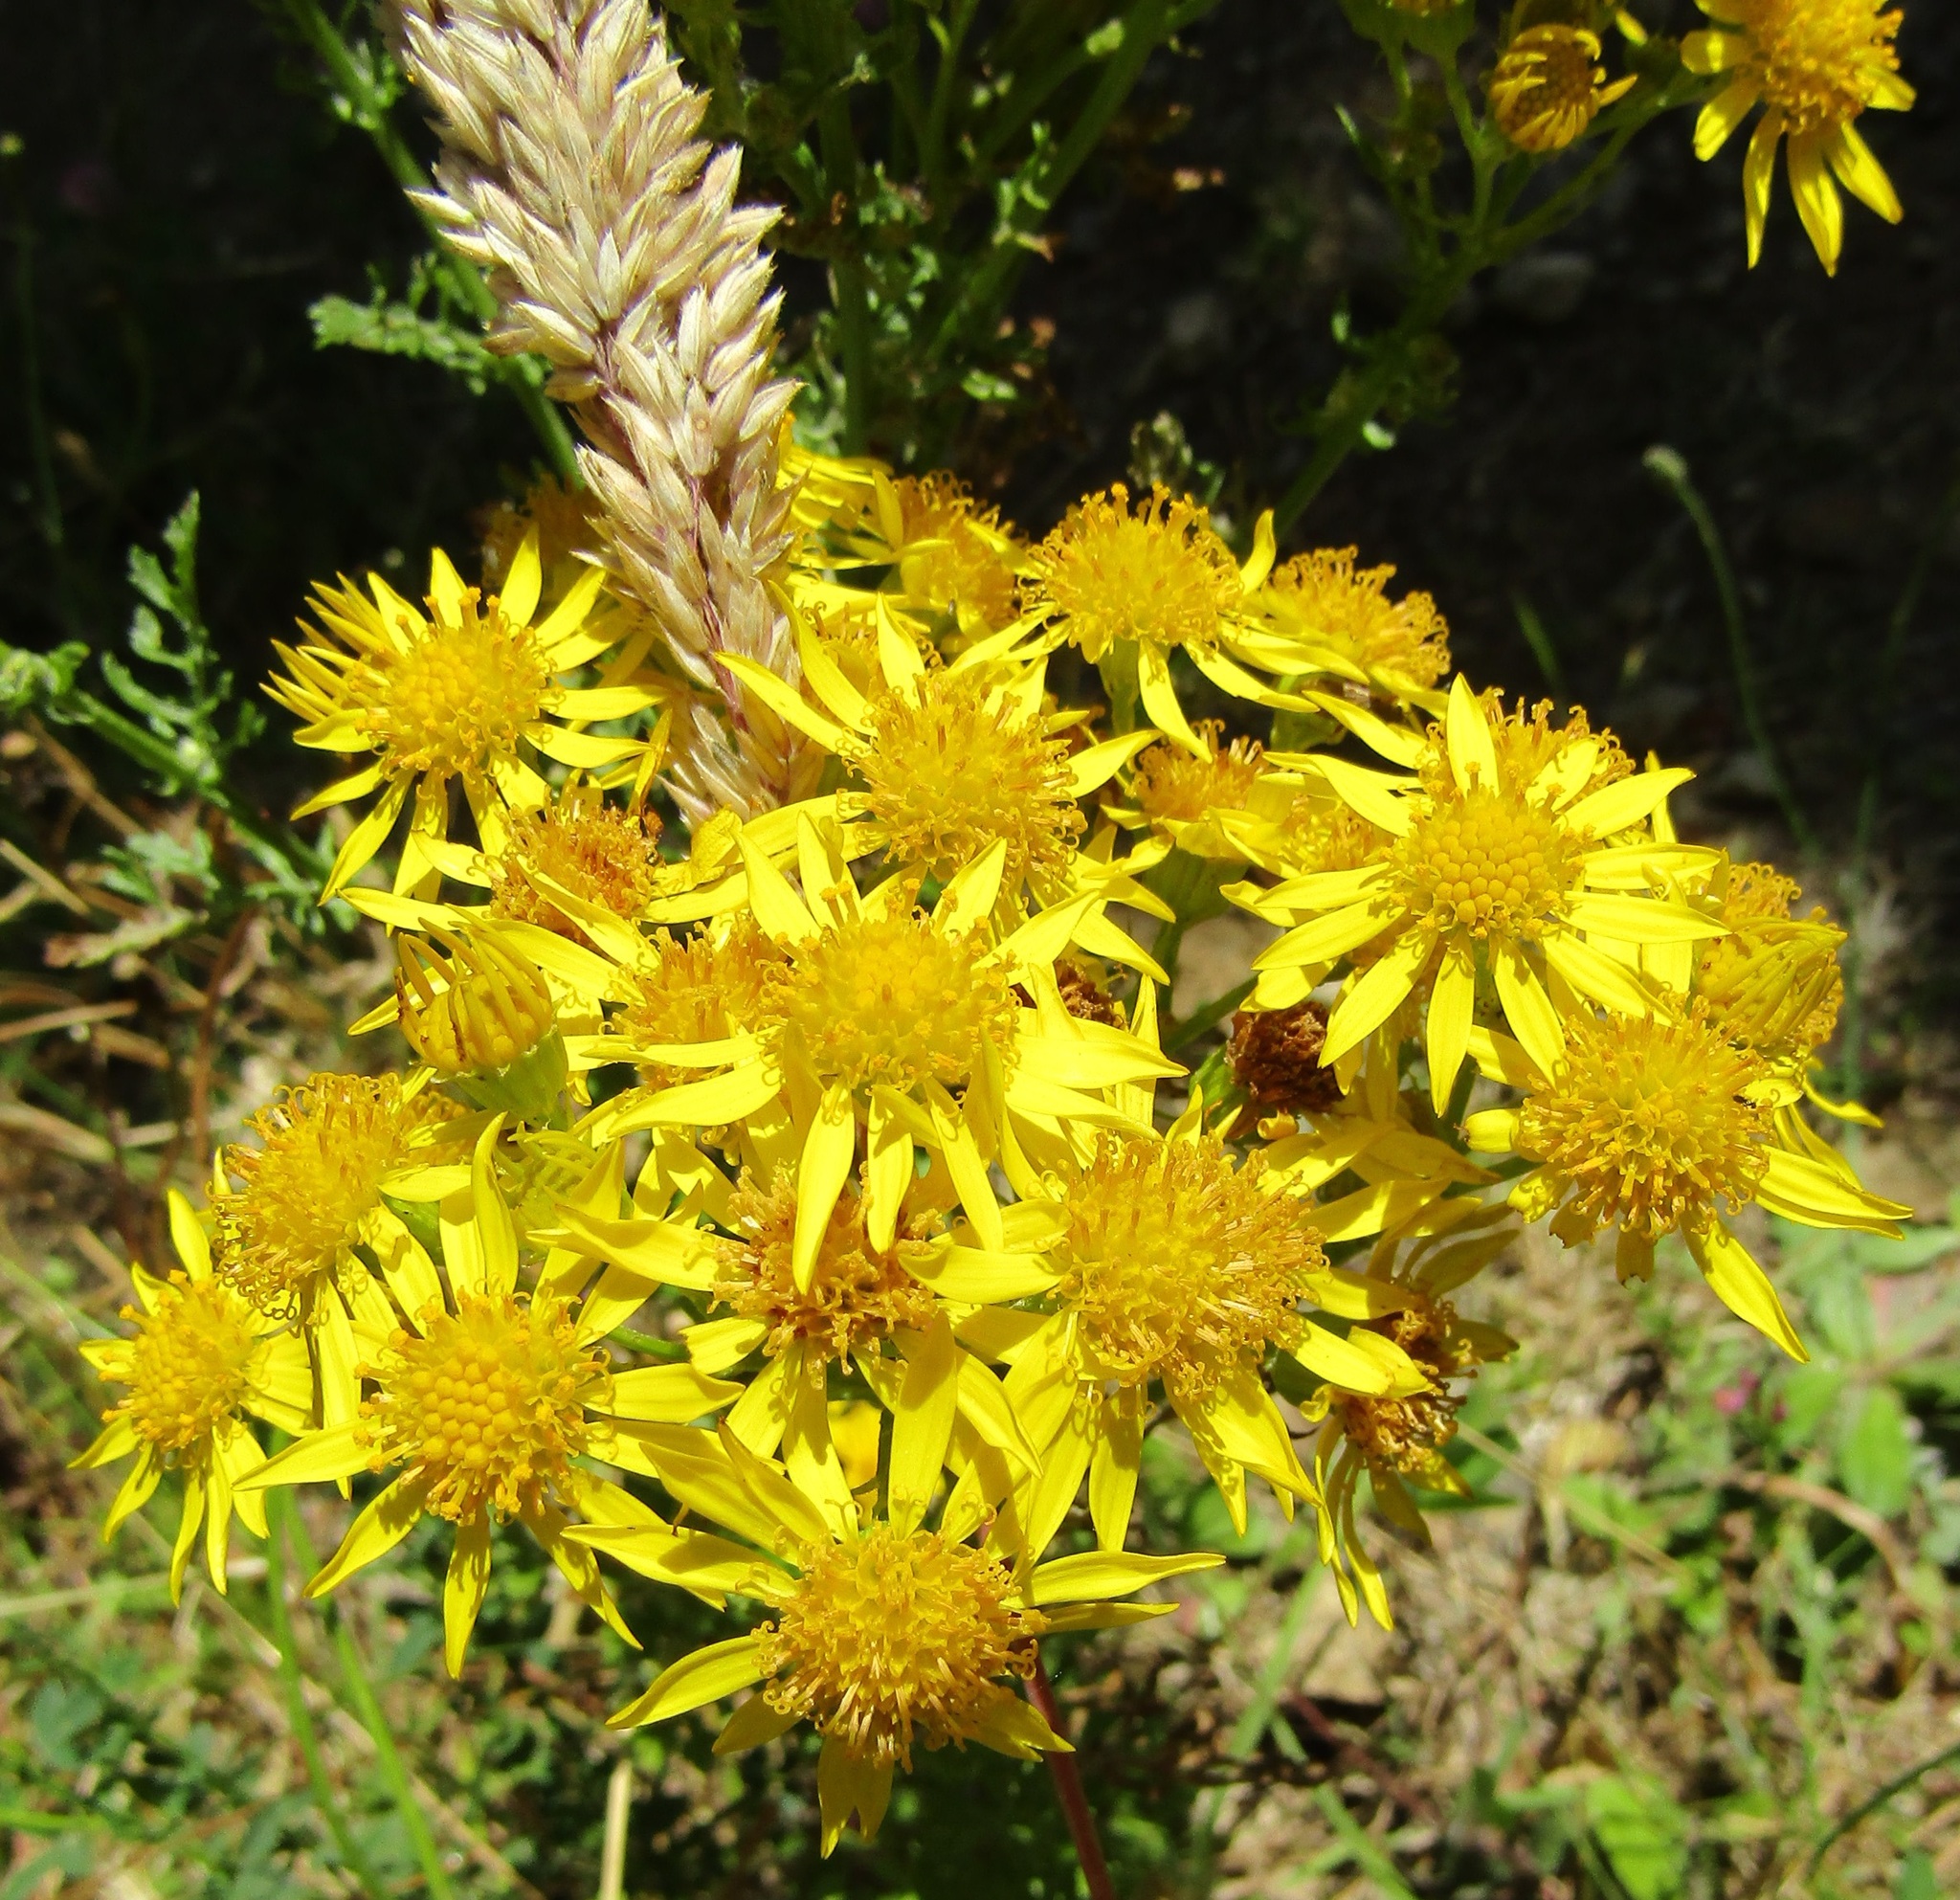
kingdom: Plantae
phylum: Tracheophyta
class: Magnoliopsida
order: Asterales
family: Asteraceae
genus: Jacobaea
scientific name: Jacobaea vulgaris
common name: Stinking willie
